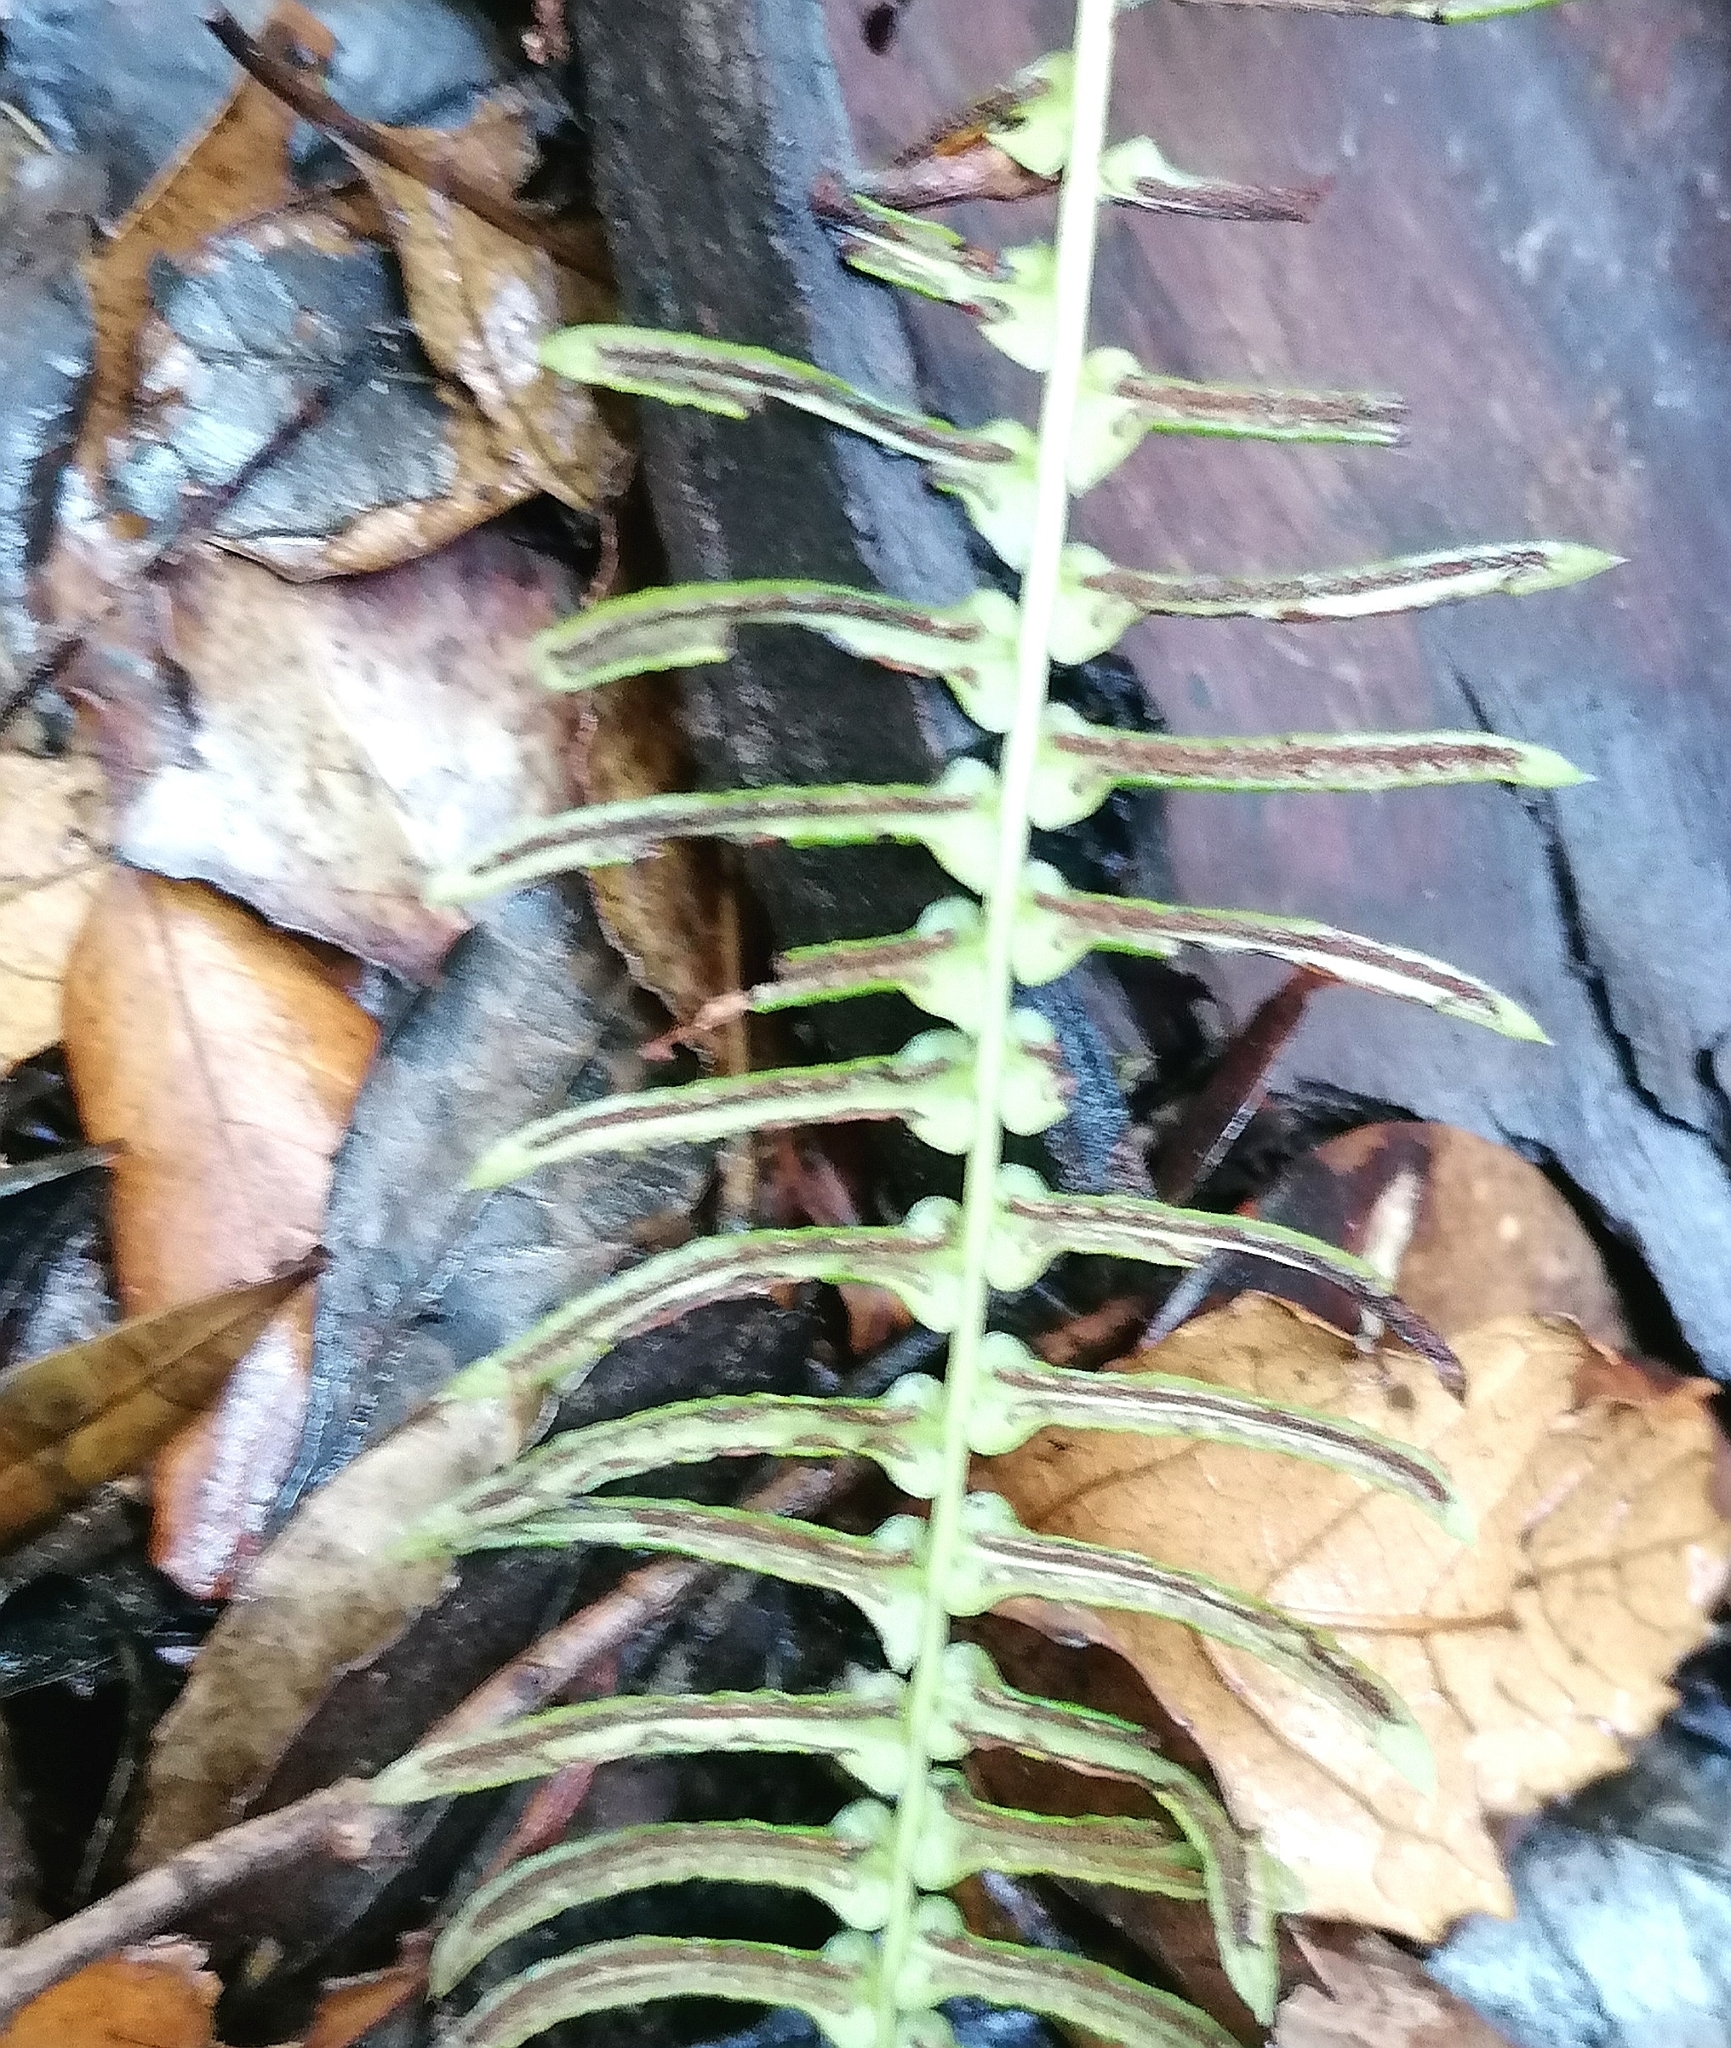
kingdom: Plantae
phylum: Tracheophyta
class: Polypodiopsida
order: Polypodiales
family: Blechnaceae
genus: Blechnum
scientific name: Blechnum australe
